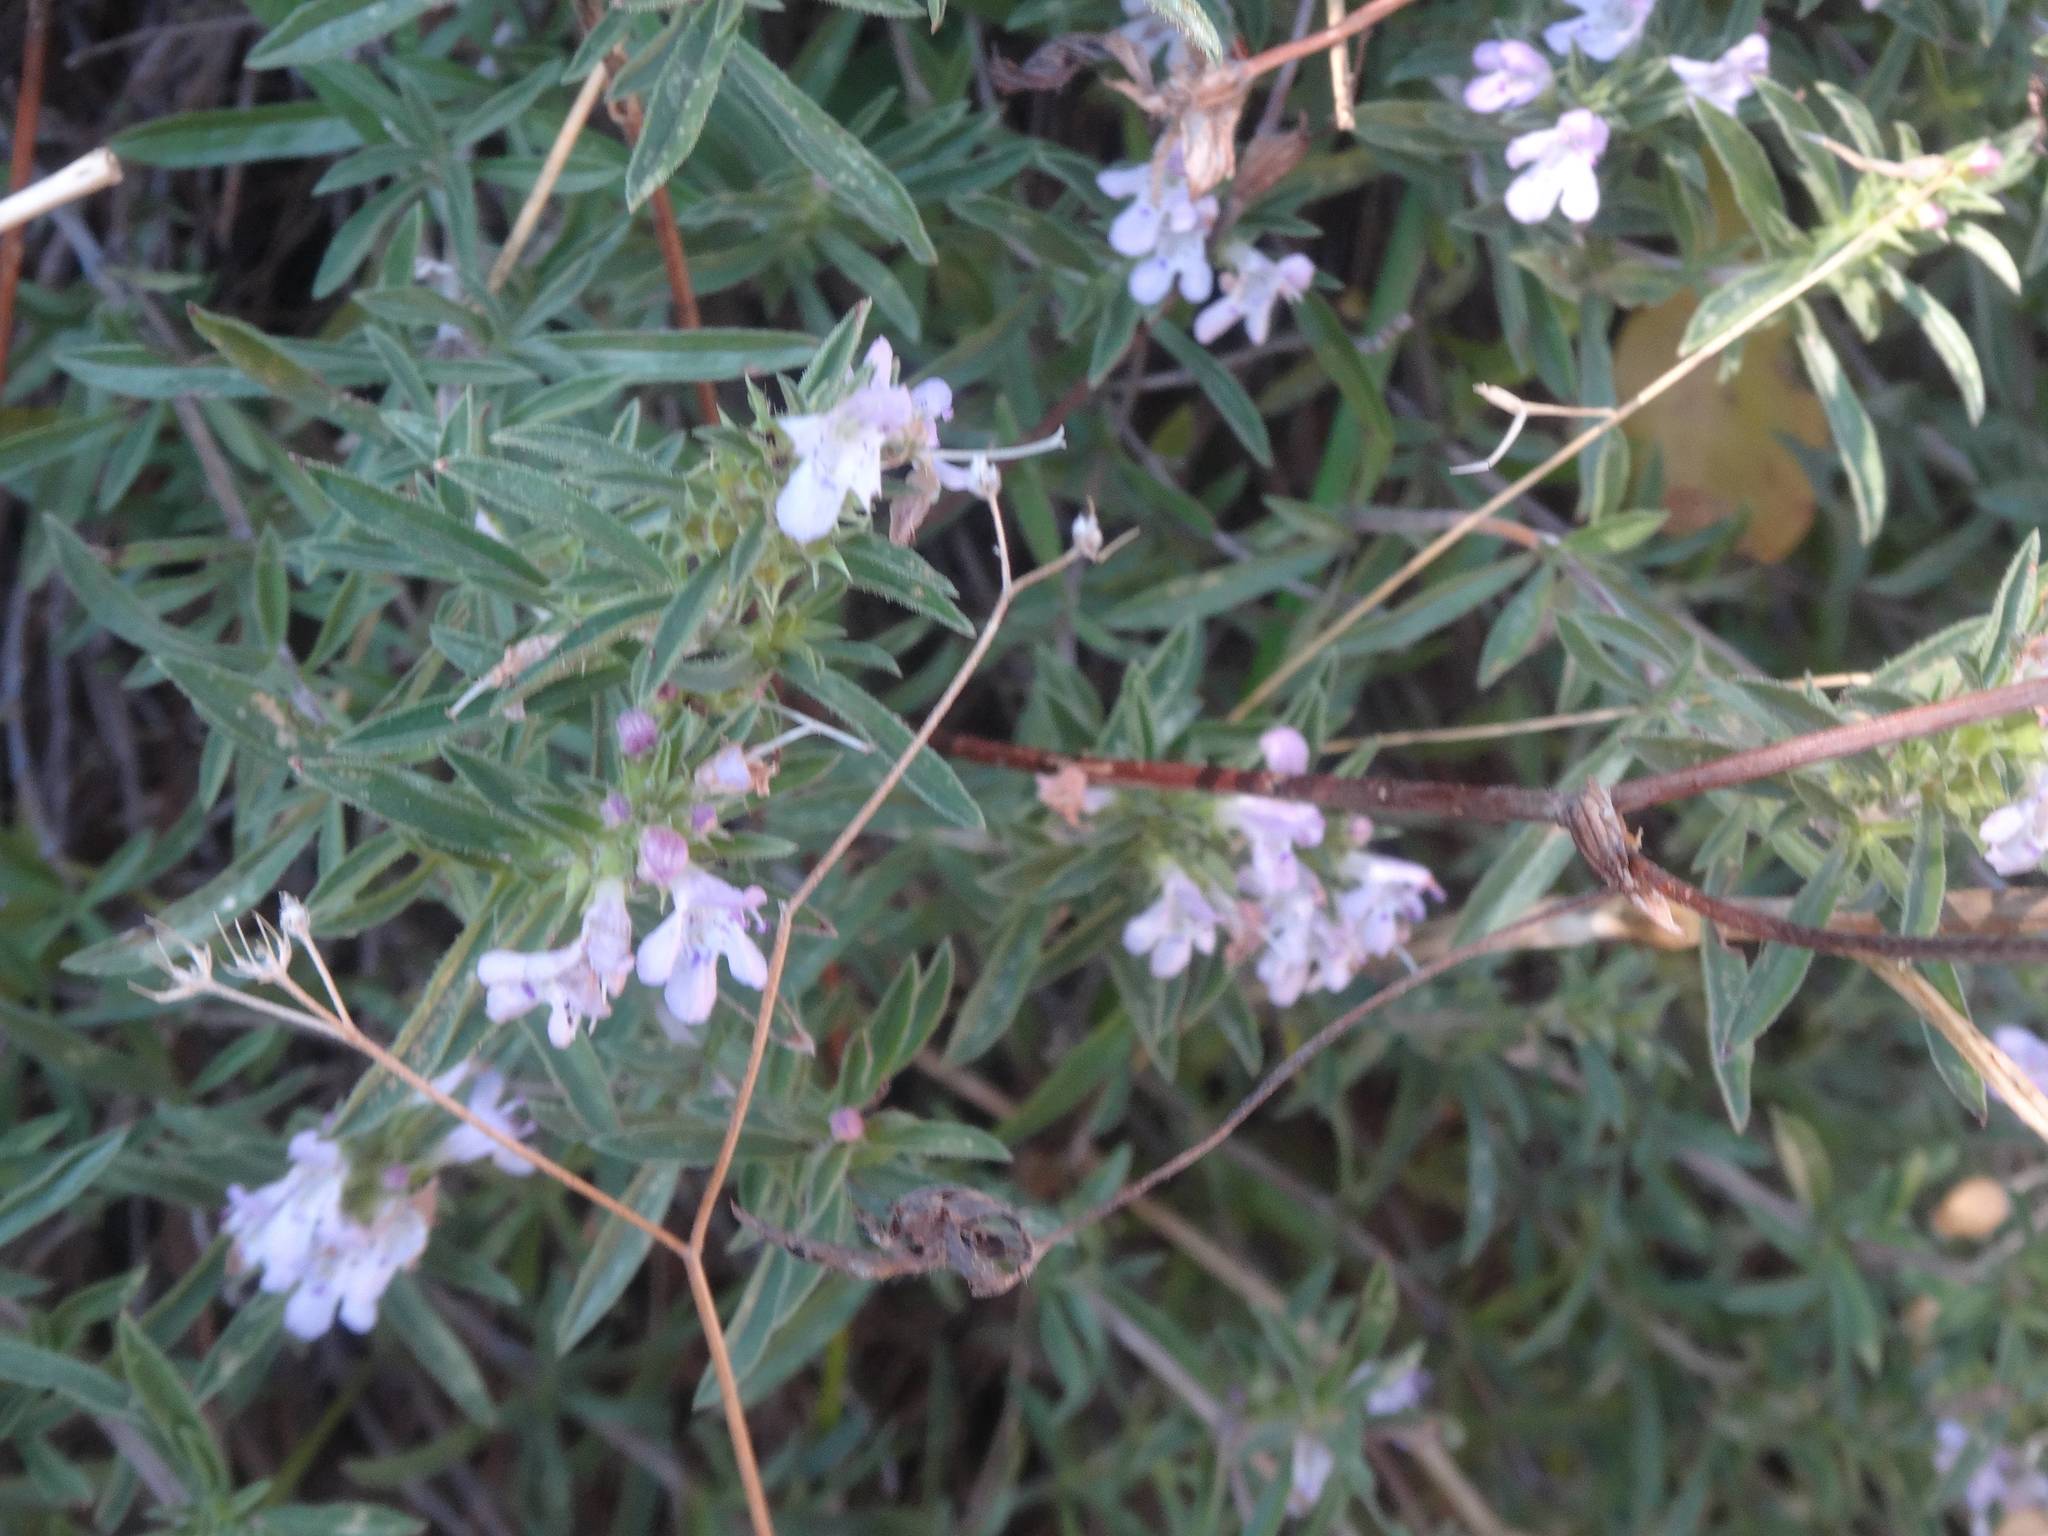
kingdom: Plantae
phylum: Tracheophyta
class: Magnoliopsida
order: Lamiales
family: Lamiaceae
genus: Satureja
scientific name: Satureja montana
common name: Winter savory
